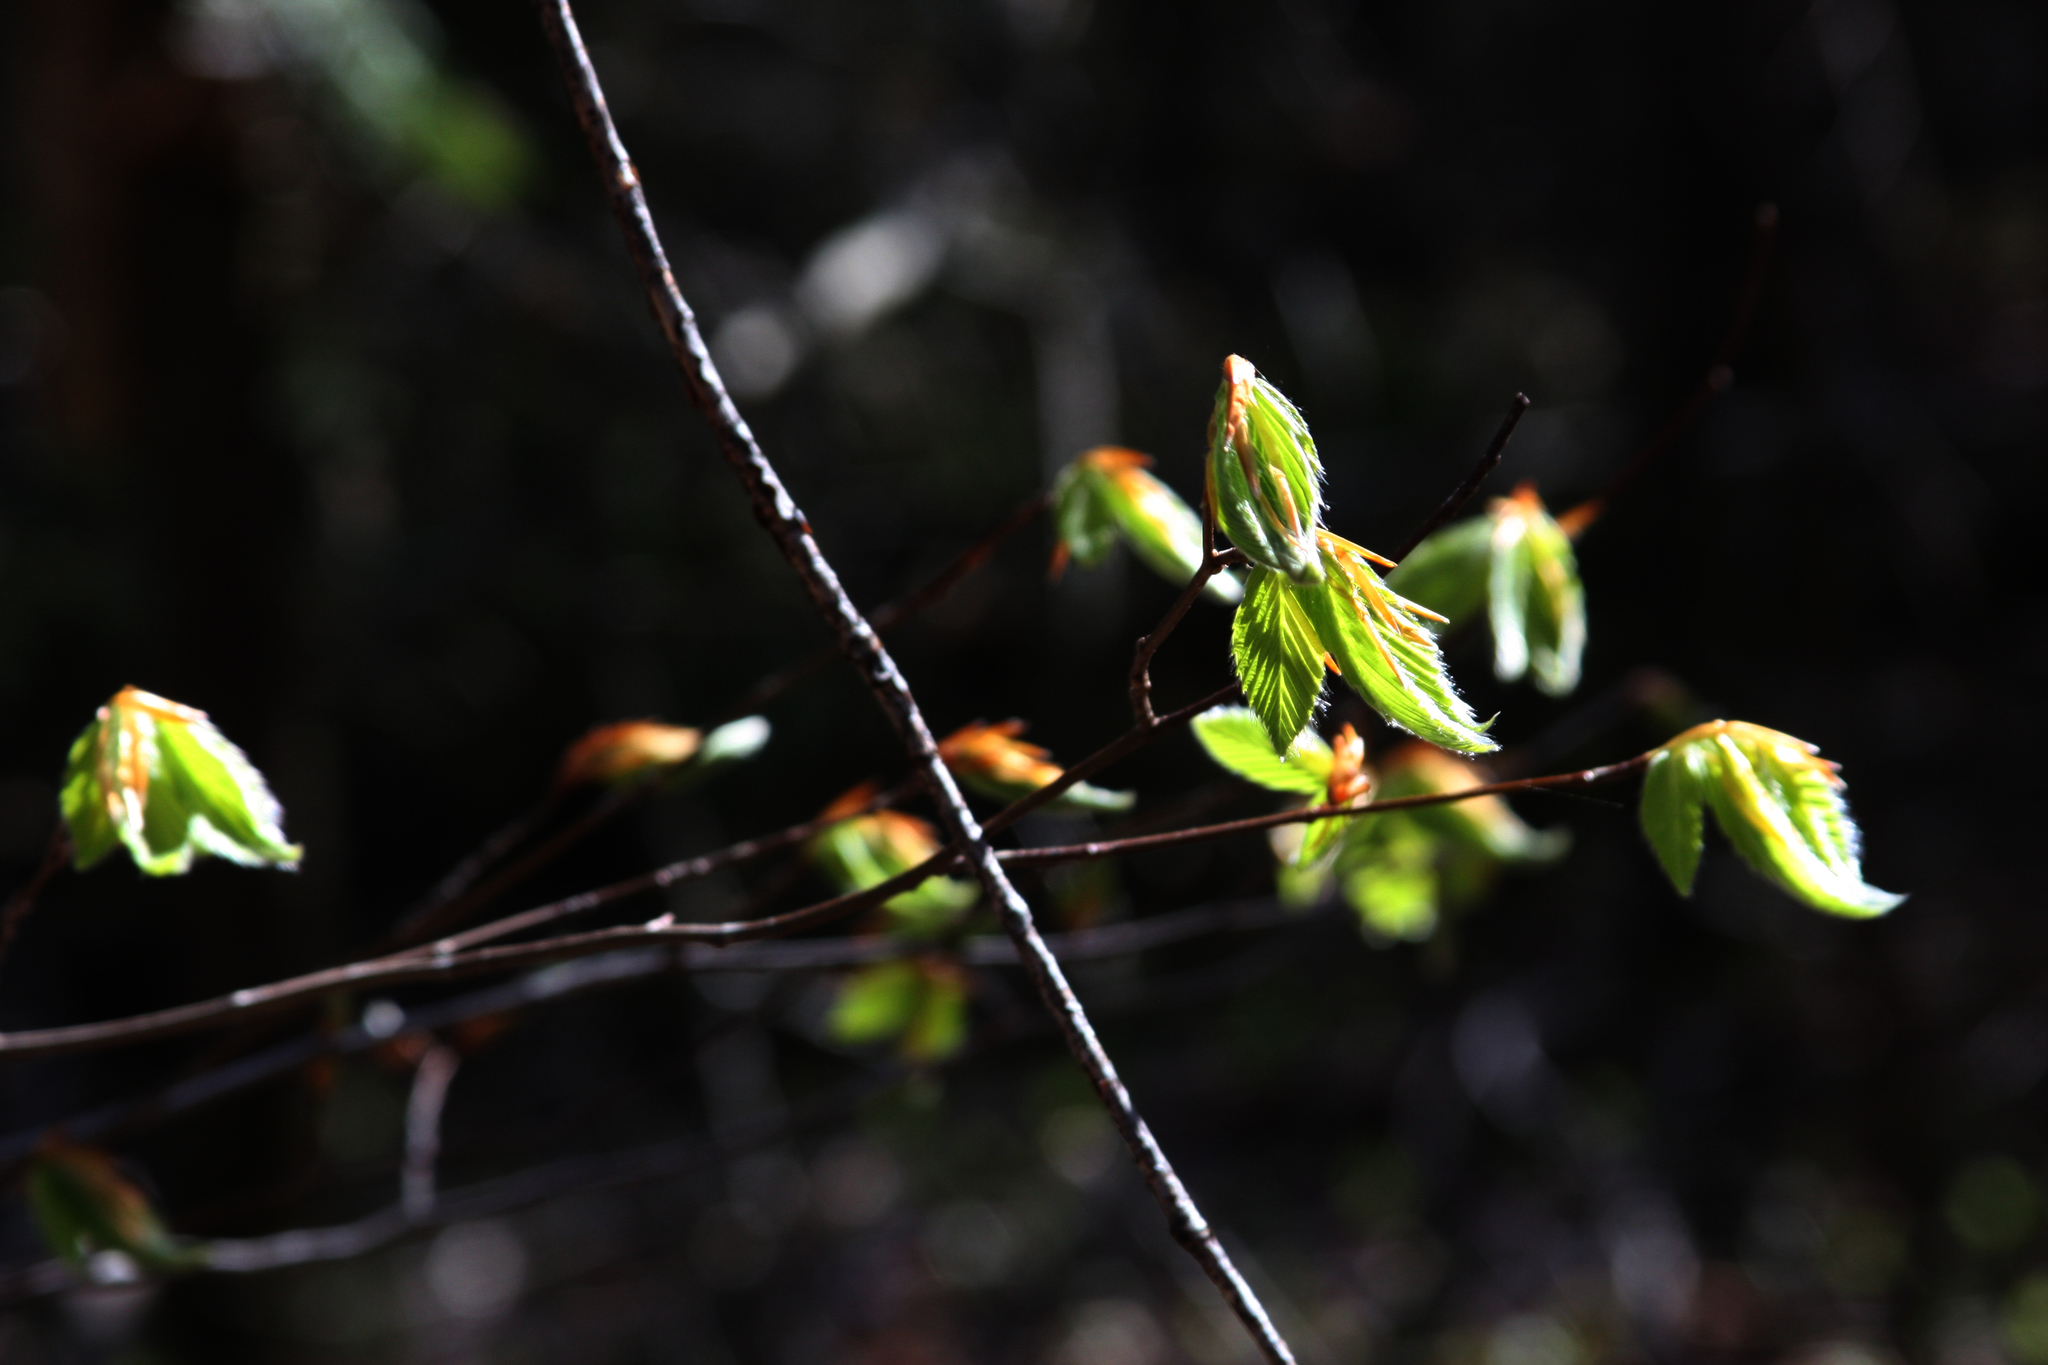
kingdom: Plantae
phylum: Tracheophyta
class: Magnoliopsida
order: Fagales
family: Fagaceae
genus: Fagus
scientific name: Fagus grandifolia
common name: American beech
